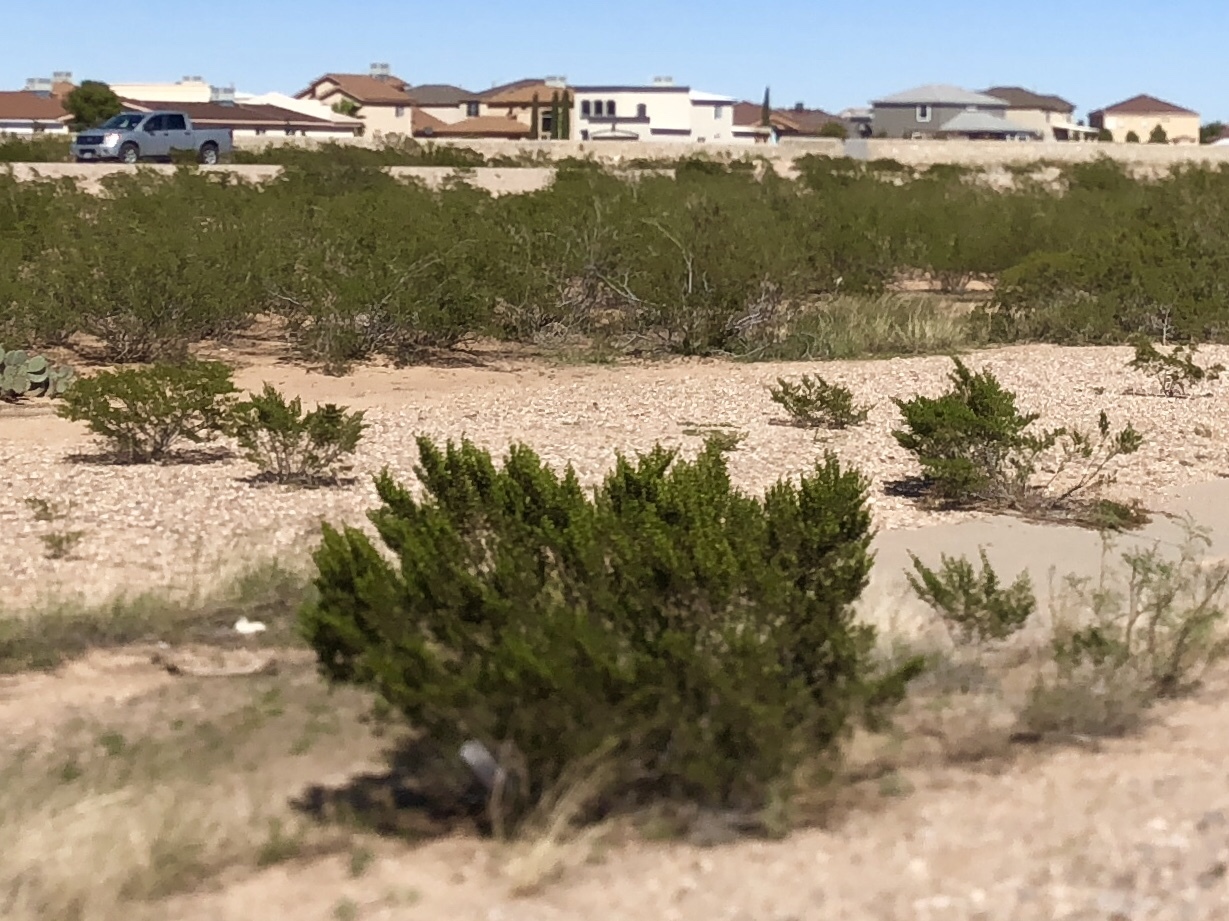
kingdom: Plantae
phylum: Tracheophyta
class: Magnoliopsida
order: Zygophyllales
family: Zygophyllaceae
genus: Larrea
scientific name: Larrea tridentata
